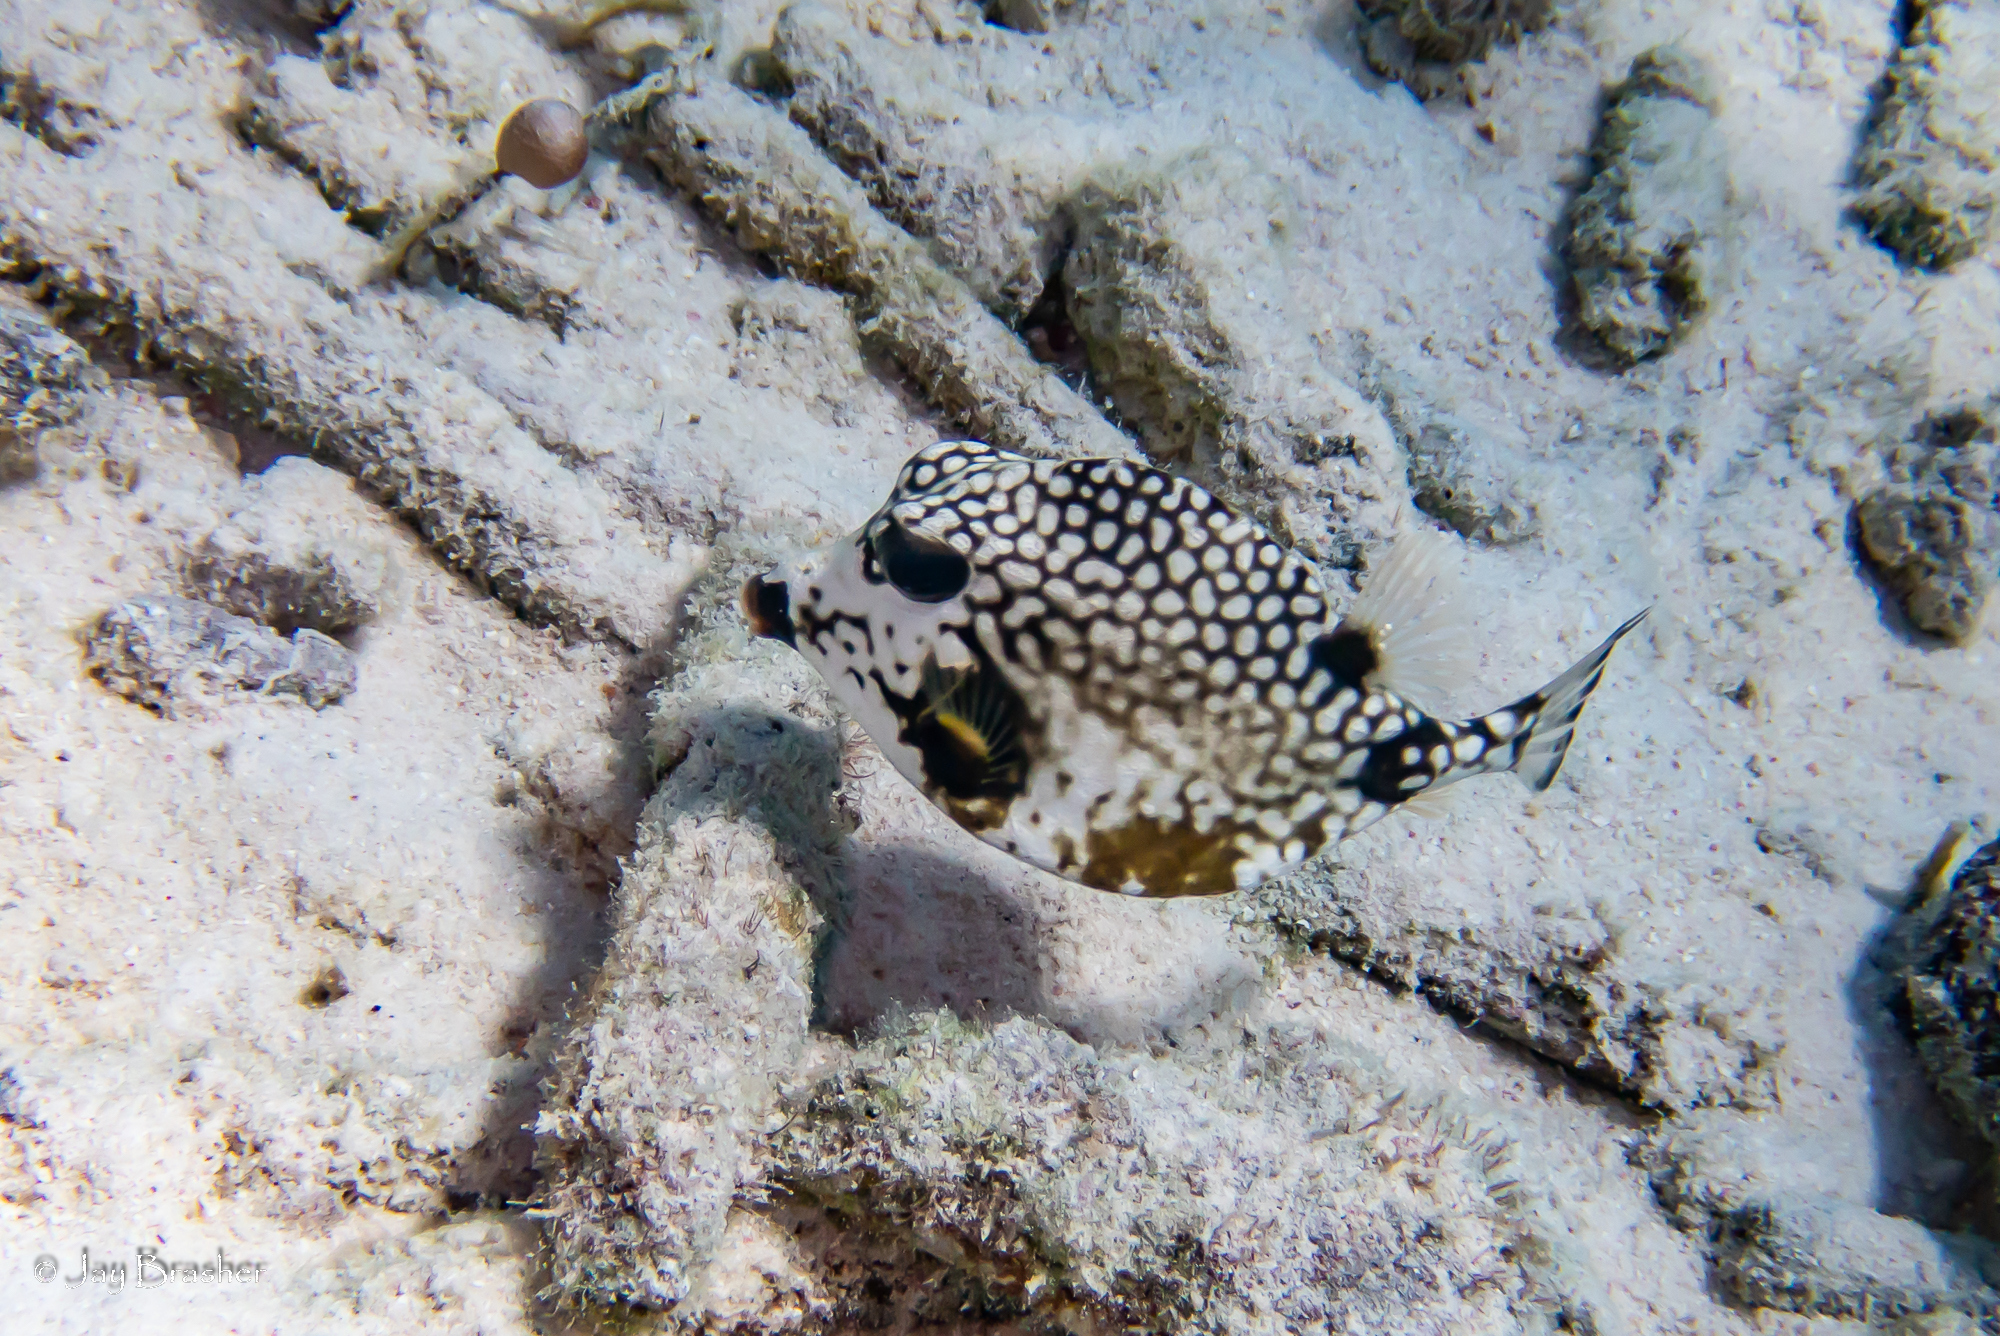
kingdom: Animalia
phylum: Chordata
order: Tetraodontiformes
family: Ostraciidae
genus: Lactophrys
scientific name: Lactophrys triqueter
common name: Smooth trunkfish
